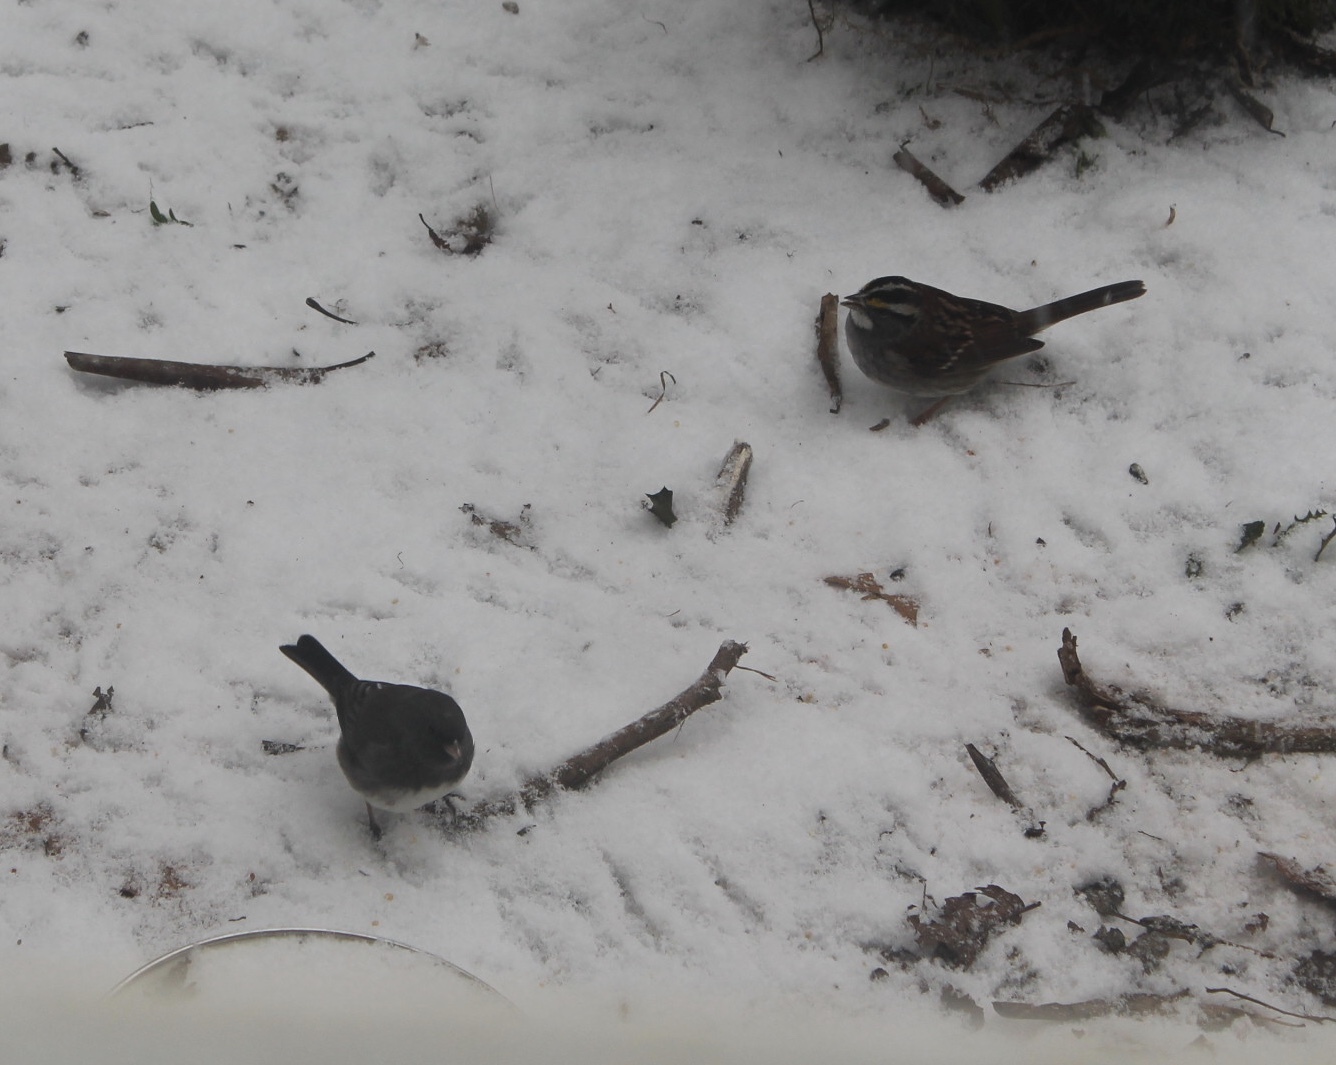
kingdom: Animalia
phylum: Chordata
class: Aves
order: Passeriformes
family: Passerellidae
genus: Zonotrichia
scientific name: Zonotrichia albicollis
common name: White-throated sparrow
